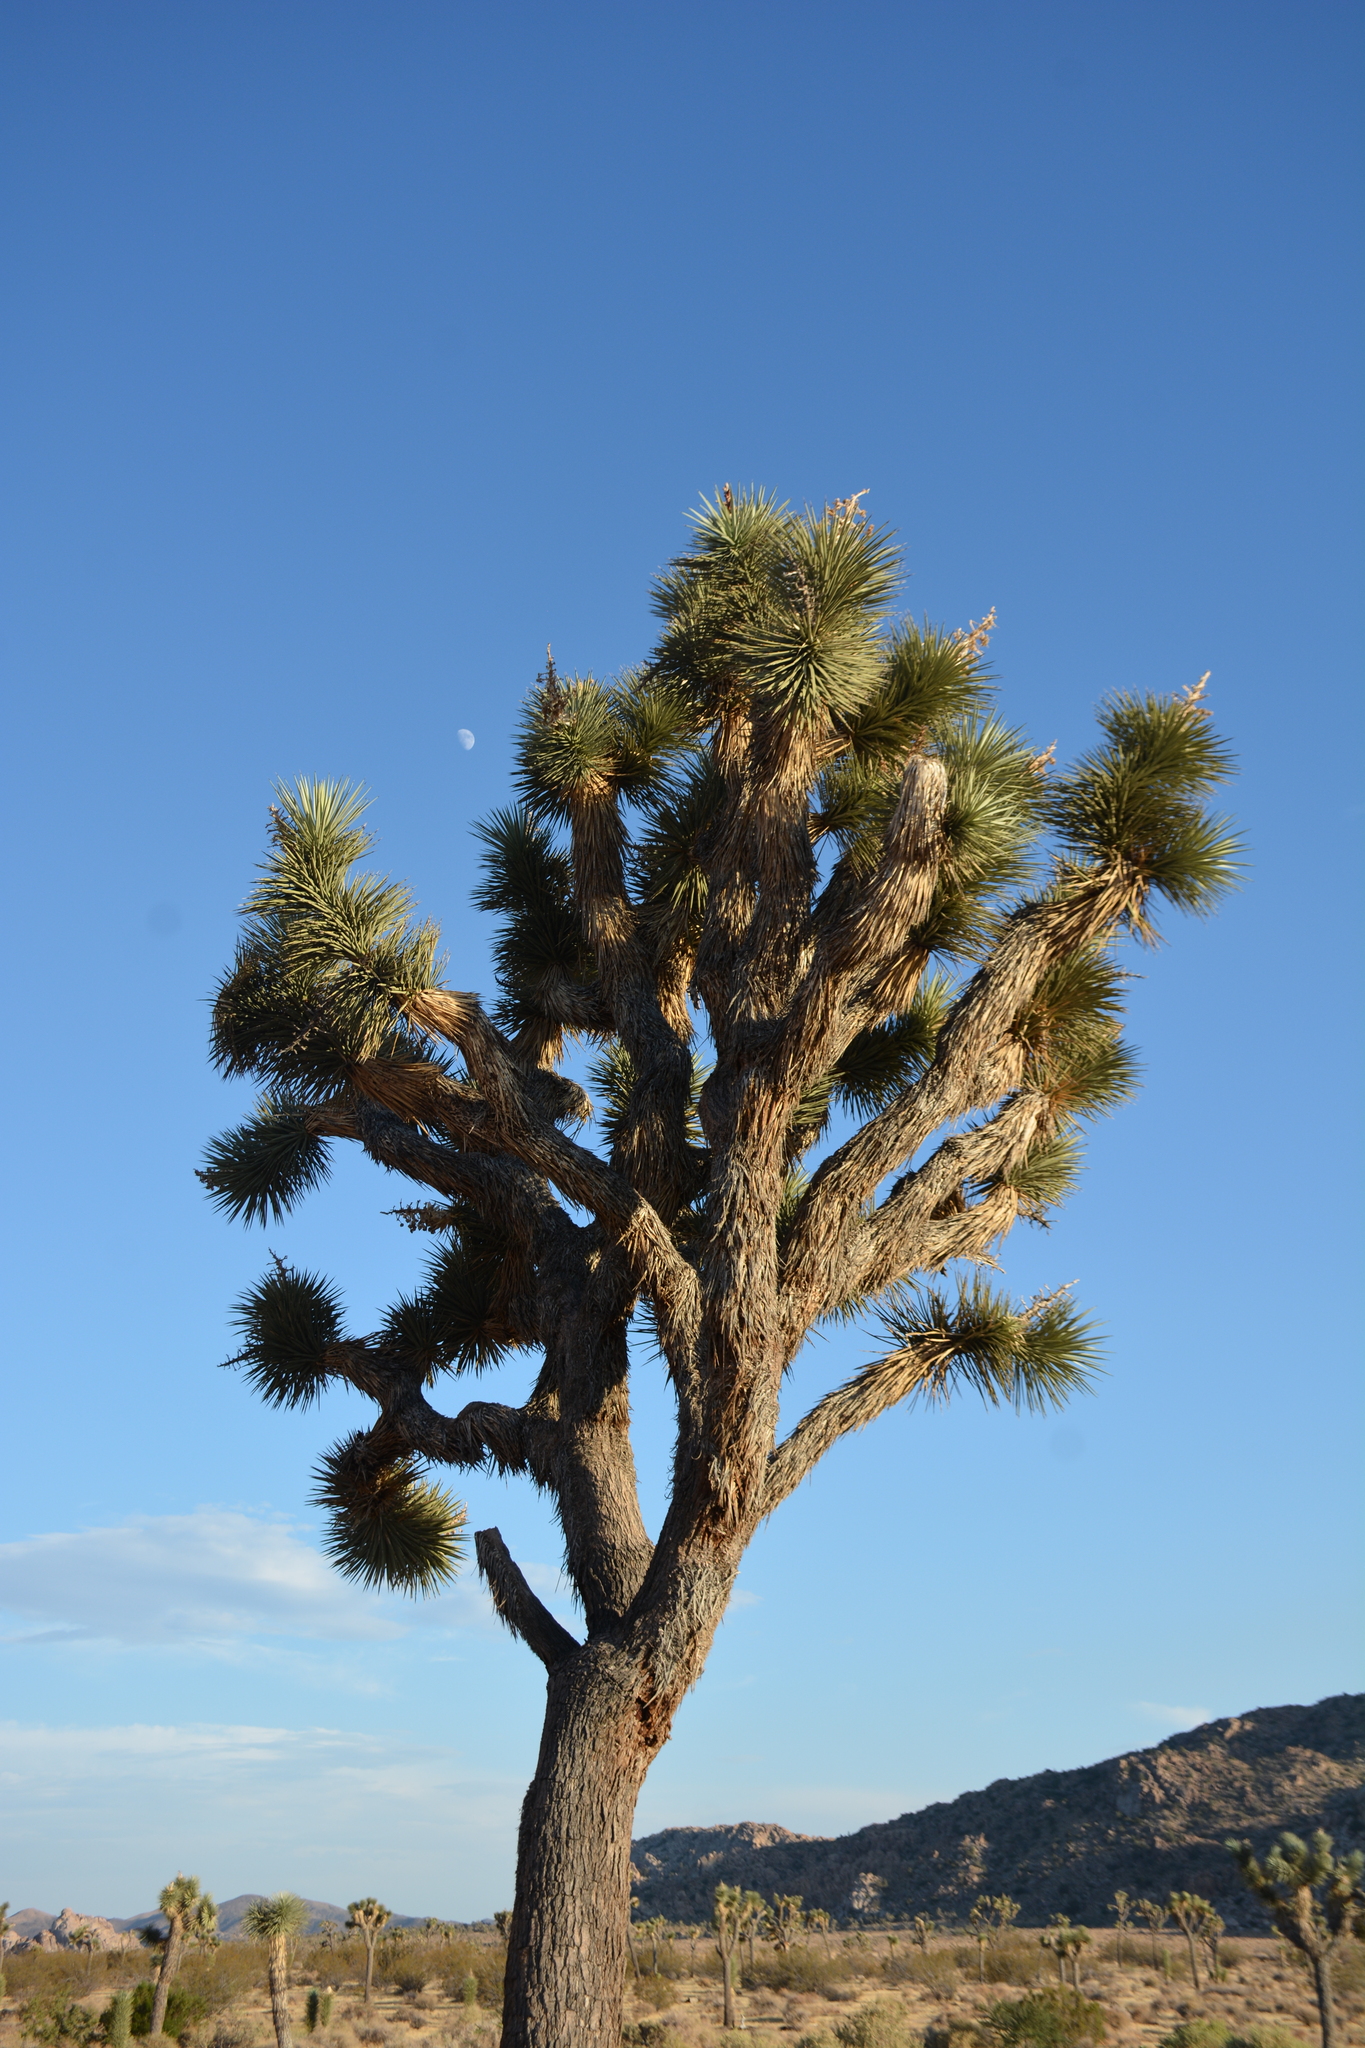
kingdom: Plantae
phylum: Tracheophyta
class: Liliopsida
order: Asparagales
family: Asparagaceae
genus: Yucca
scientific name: Yucca brevifolia
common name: Joshua tree
